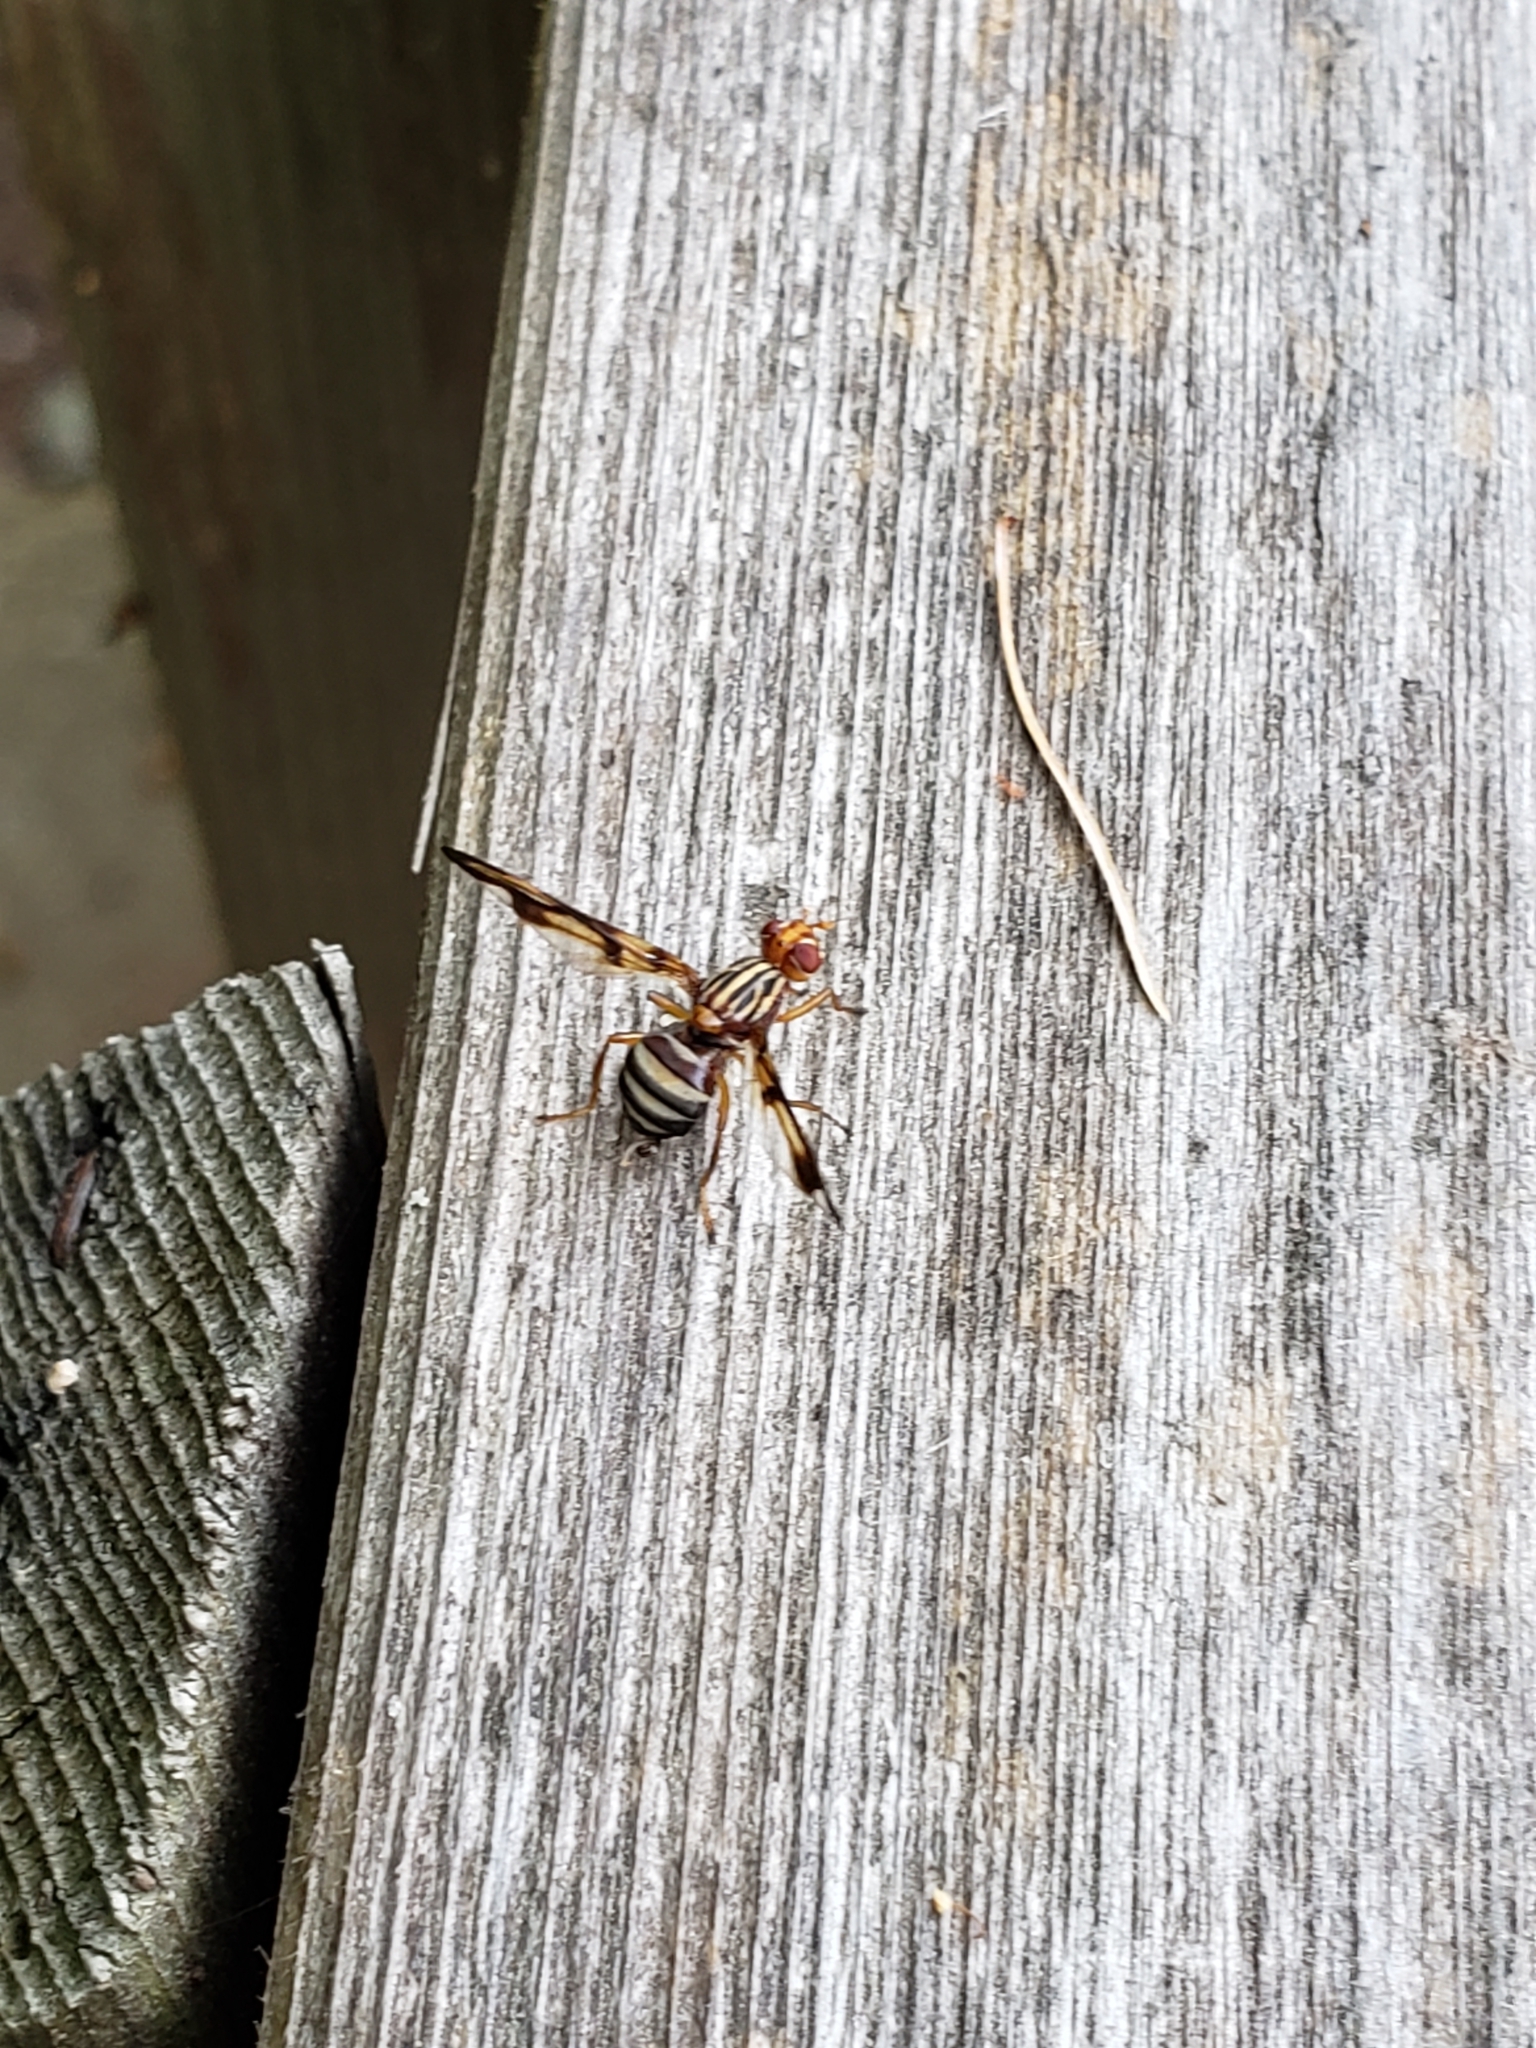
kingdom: Animalia
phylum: Arthropoda
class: Insecta
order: Diptera
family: Ulidiidae
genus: Idana
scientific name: Idana marginata
